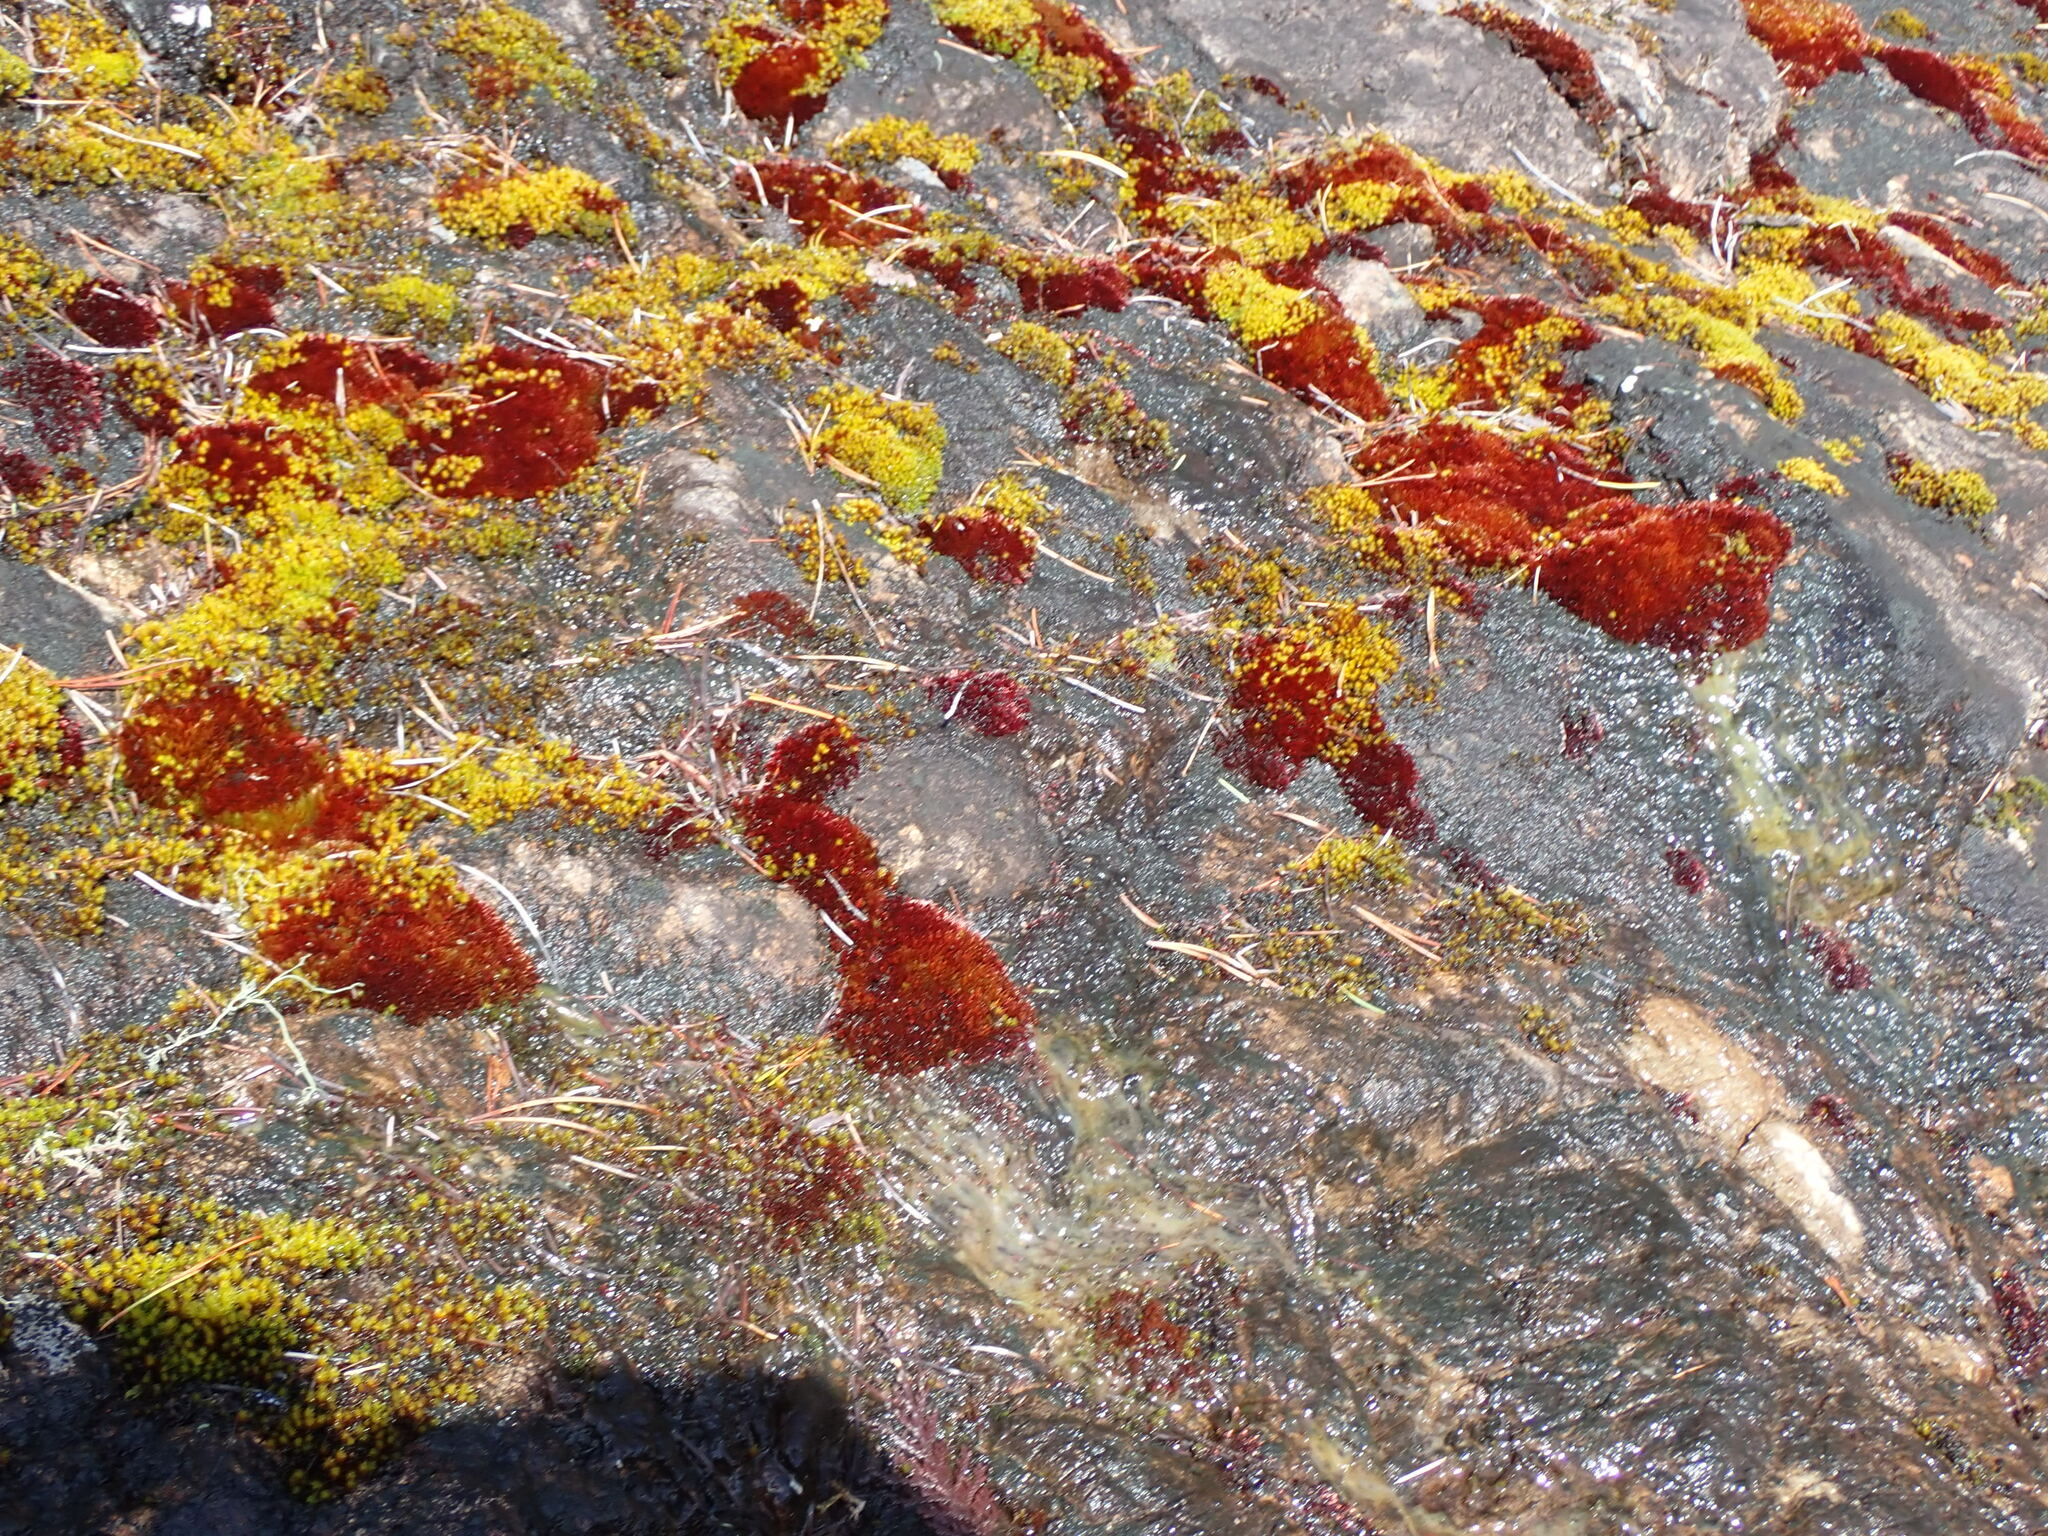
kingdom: Plantae
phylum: Bryophyta
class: Bryopsida
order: Bryales
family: Bryaceae
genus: Imbribryum
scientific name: Imbribryum miniatum
